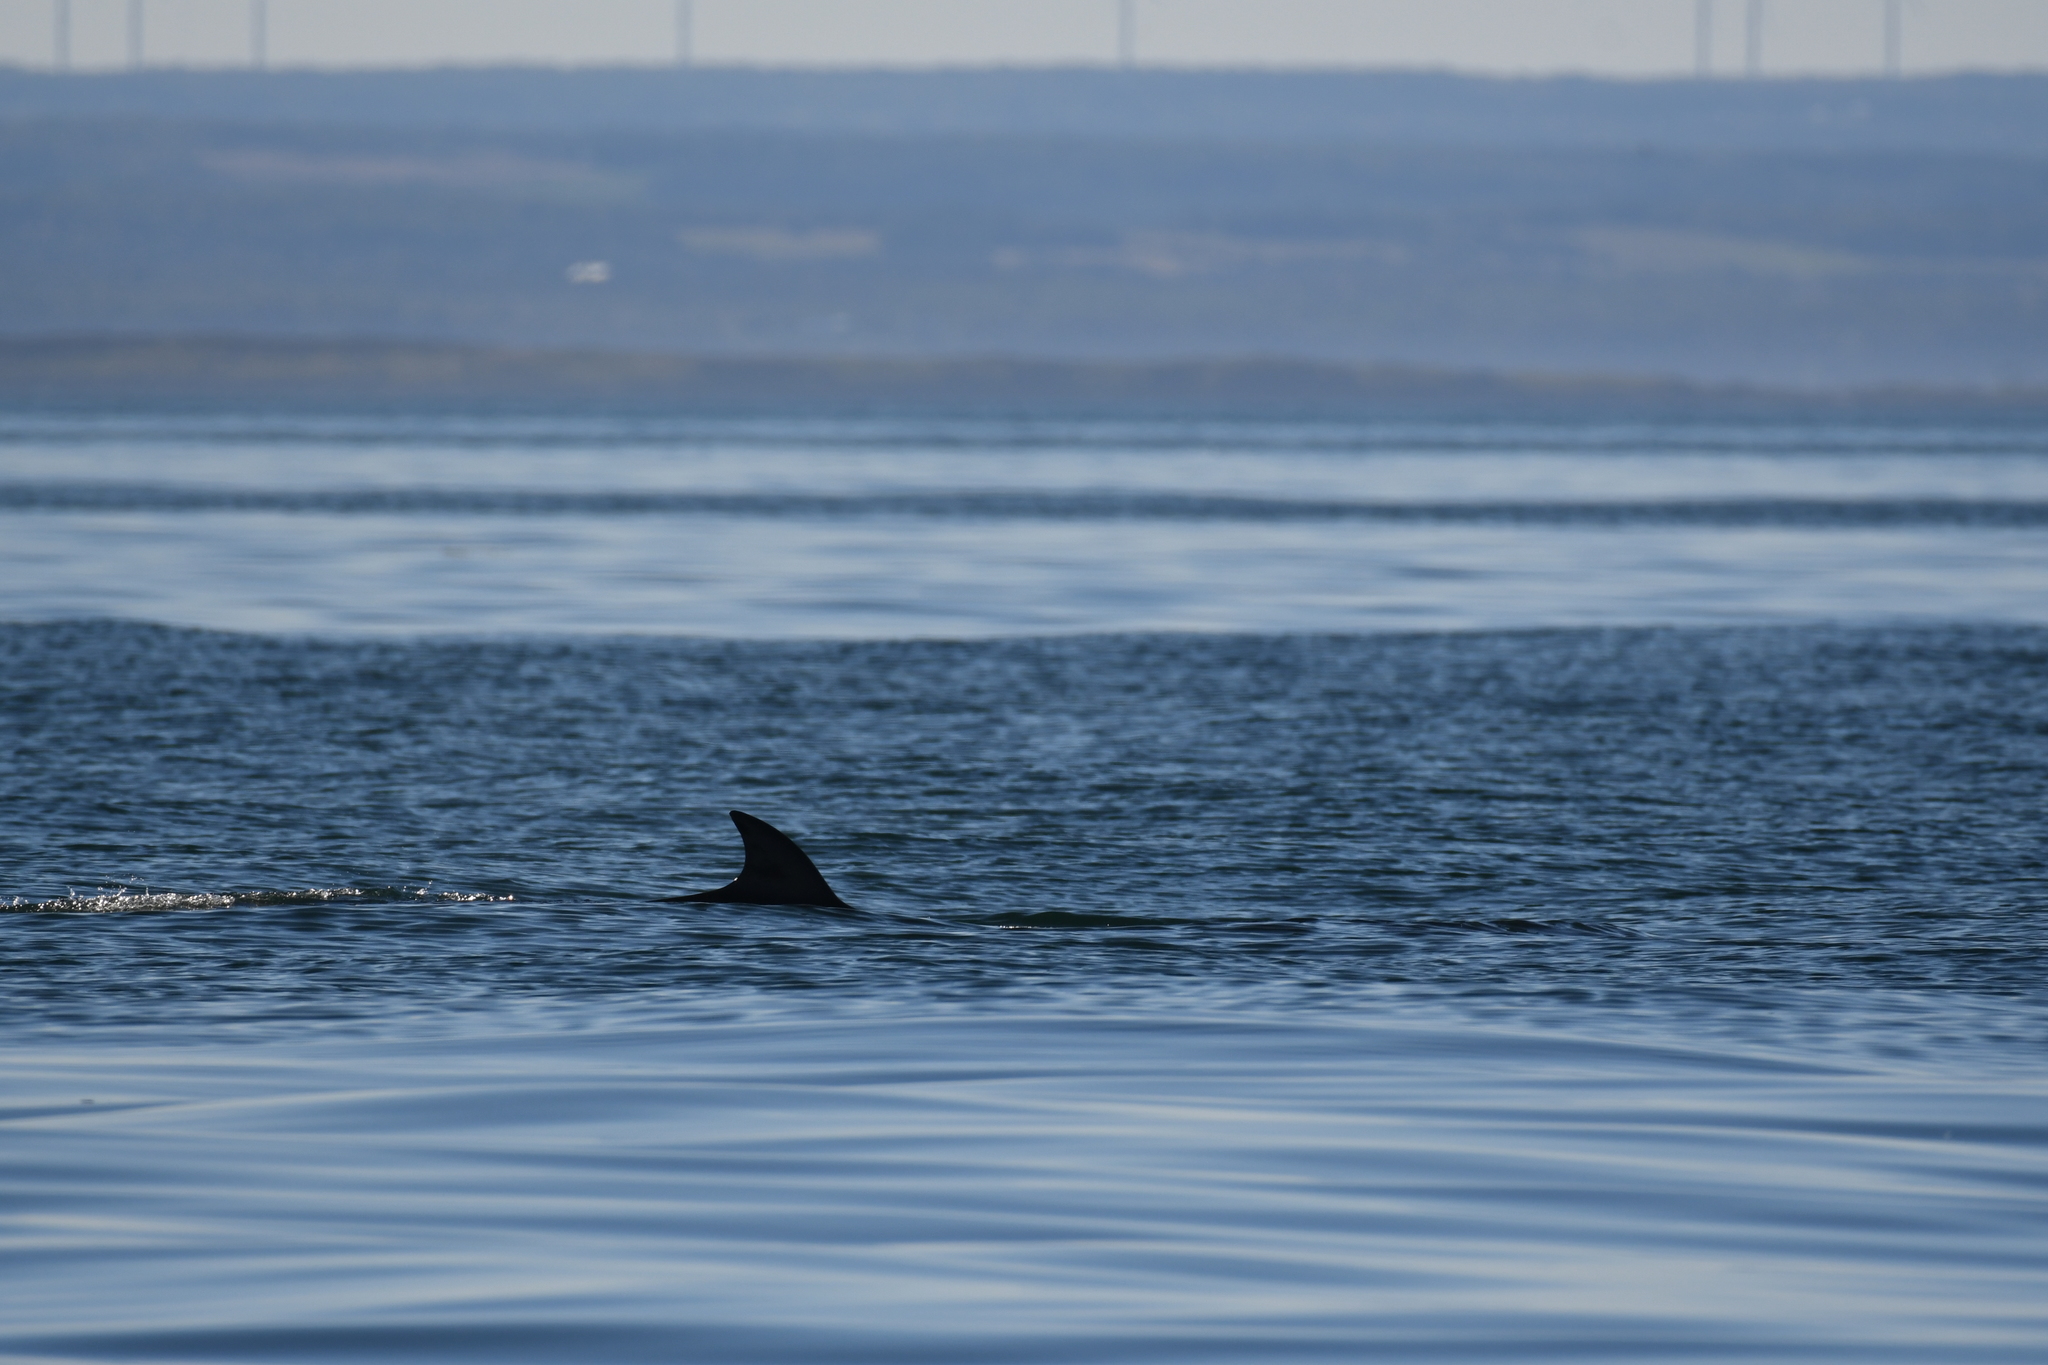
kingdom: Animalia
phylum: Chordata
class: Mammalia
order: Cetacea
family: Balaenopteridae
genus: Balaenoptera
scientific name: Balaenoptera acutorostrata
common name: Common minke whale
